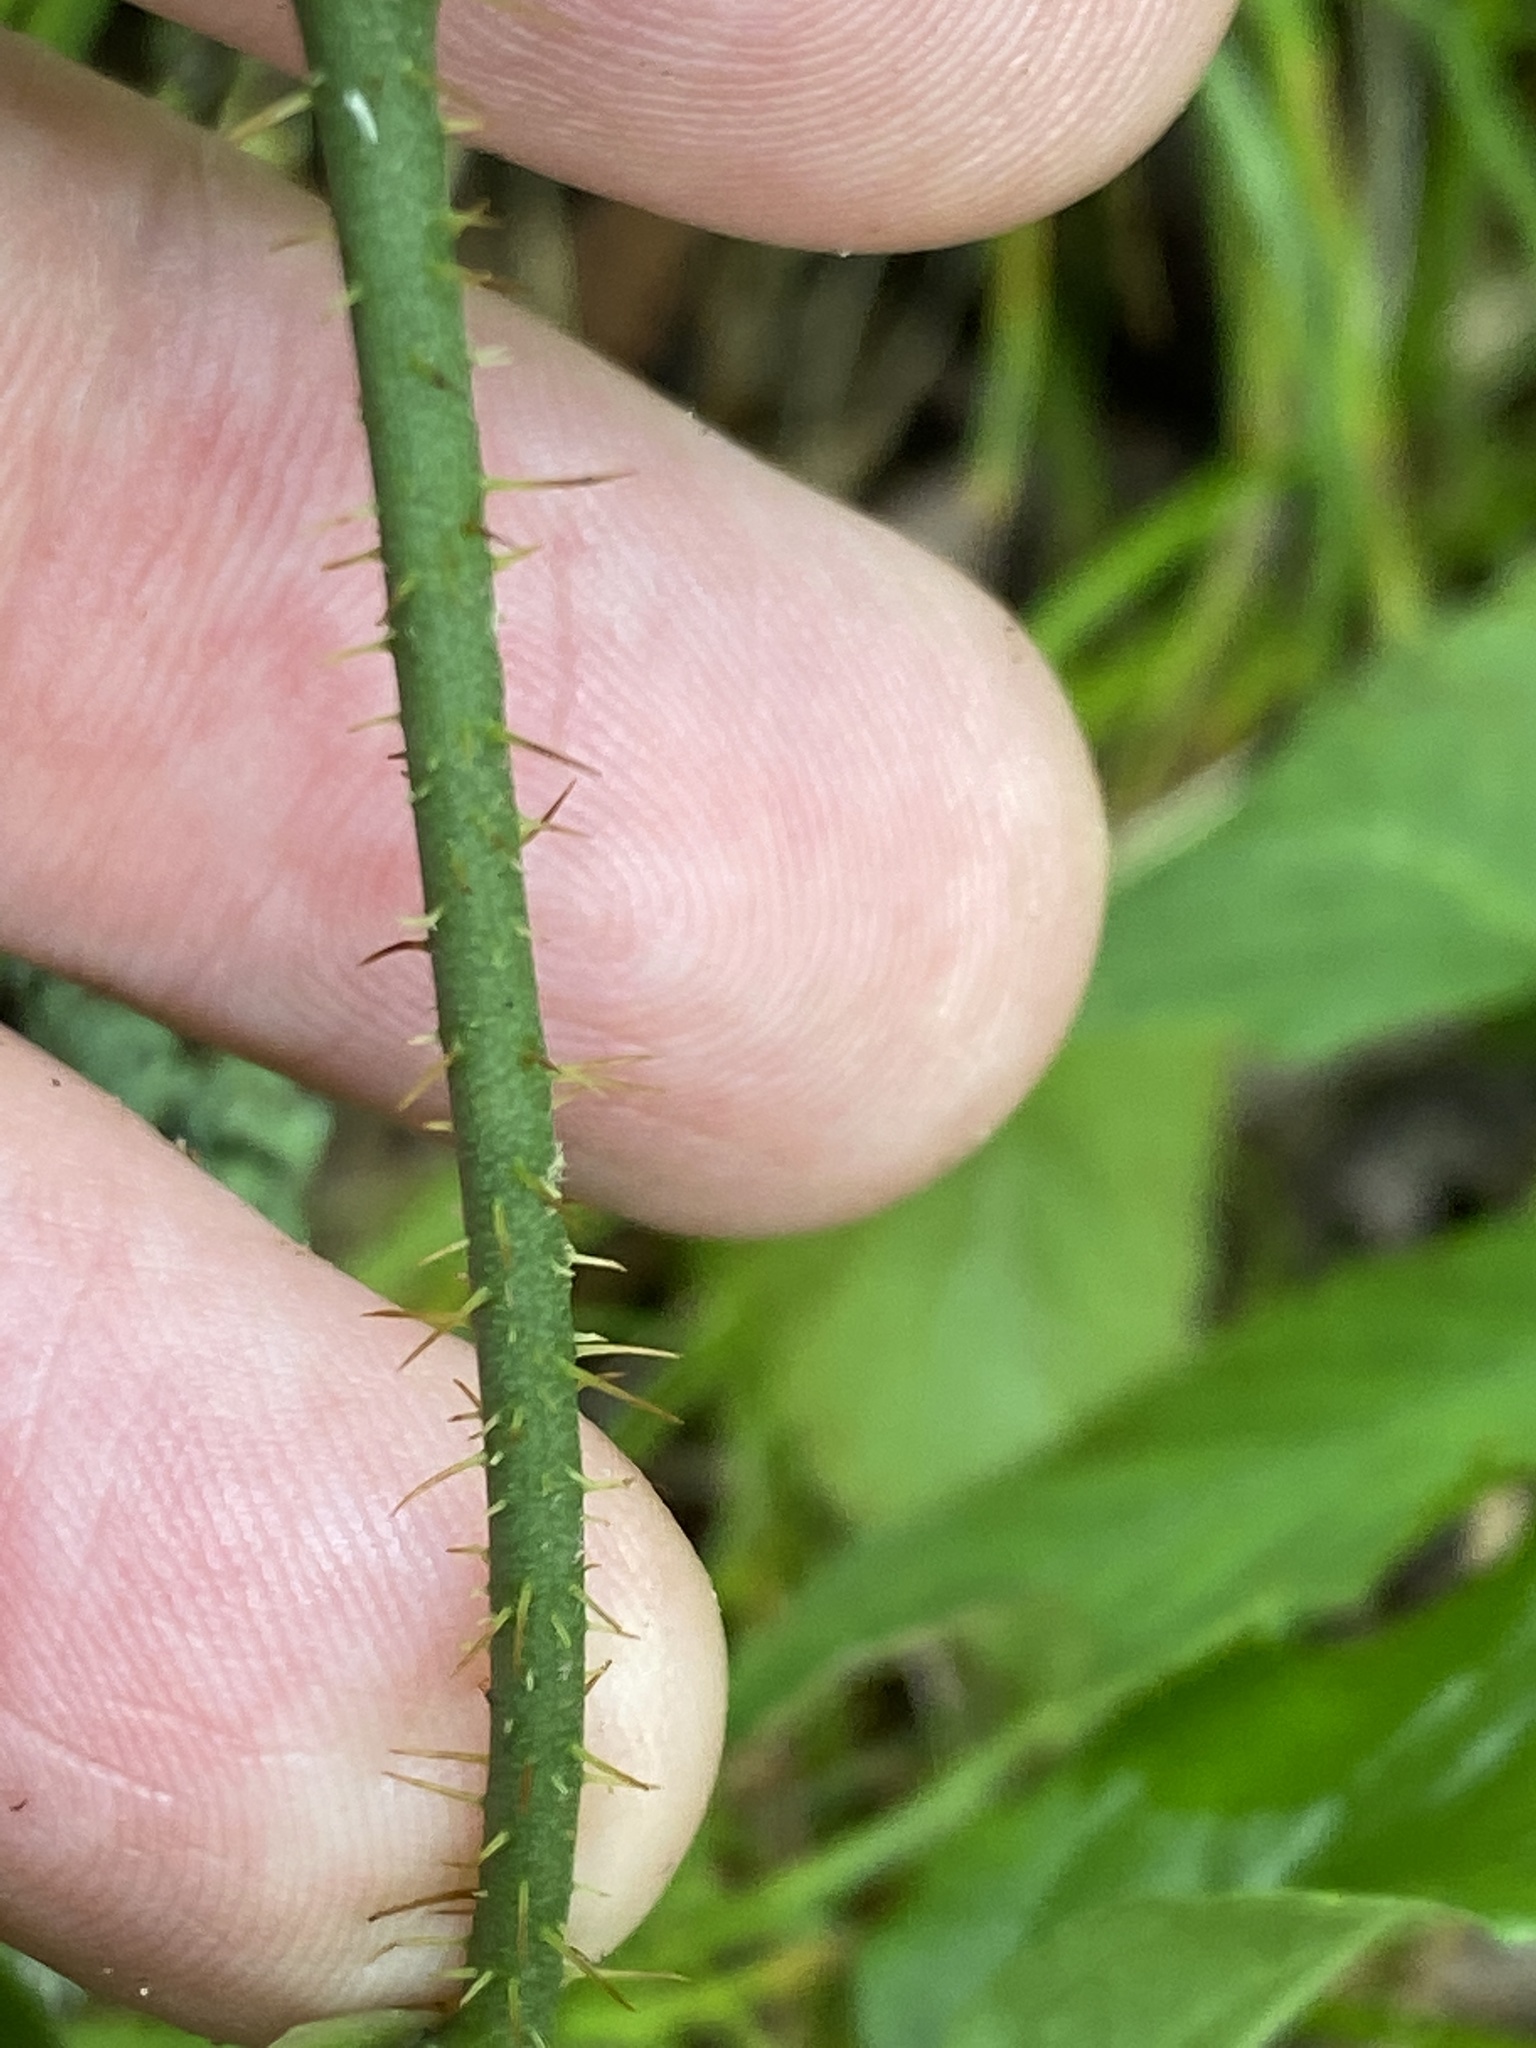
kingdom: Plantae
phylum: Tracheophyta
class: Liliopsida
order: Liliales
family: Smilacaceae
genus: Smilax
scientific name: Smilax tamnoides
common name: Hellfetter
